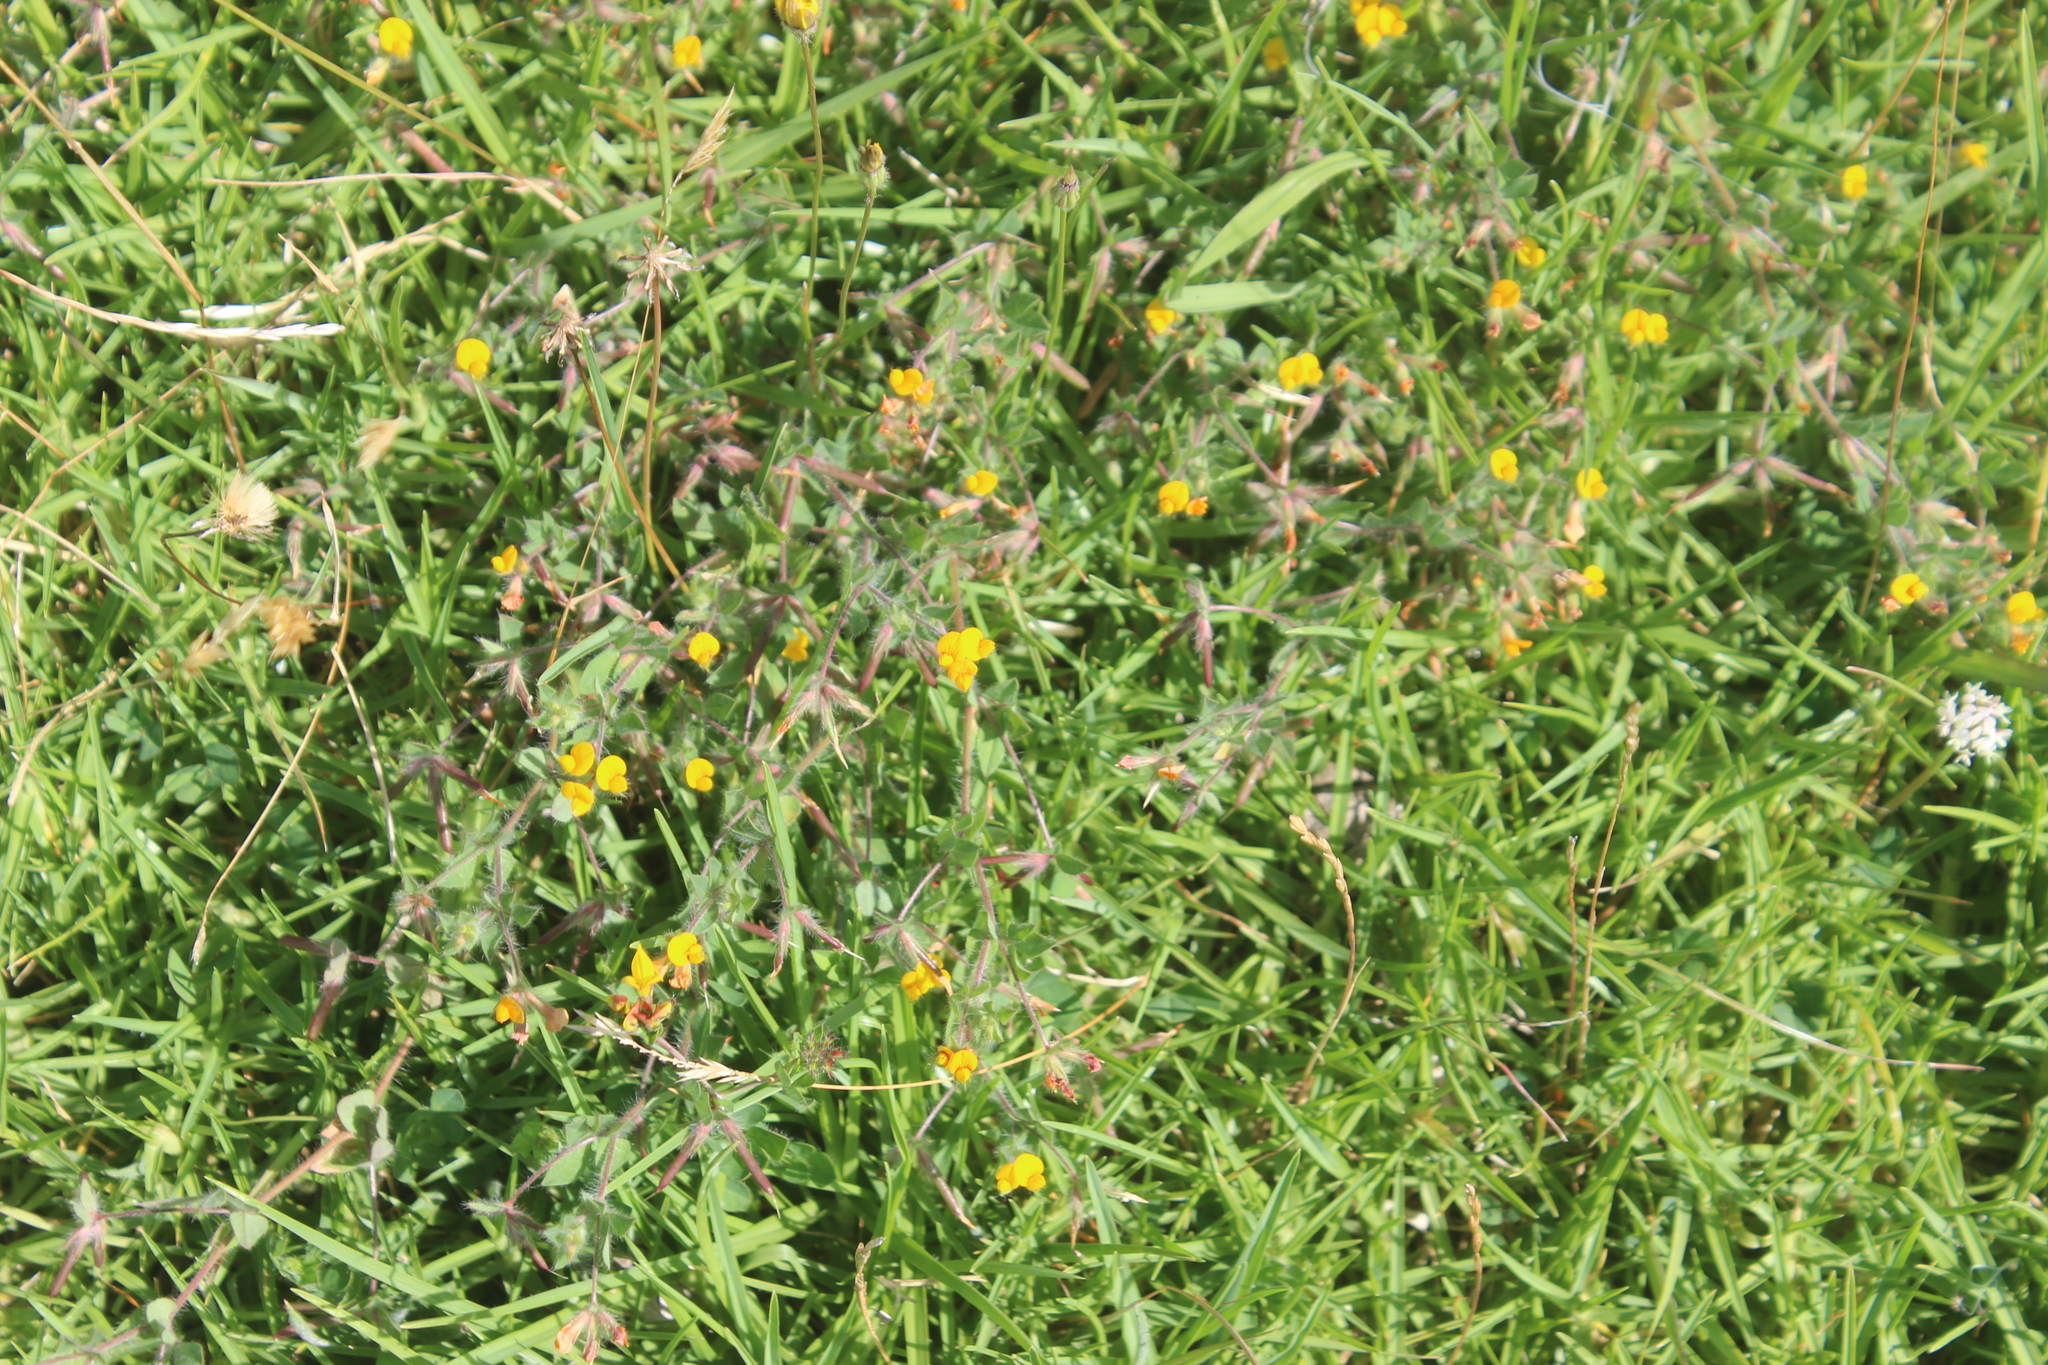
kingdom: Plantae
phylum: Tracheophyta
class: Magnoliopsida
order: Fabales
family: Fabaceae
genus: Lotus
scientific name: Lotus subbiflorus
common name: Hairy bird's-foot trefoil
